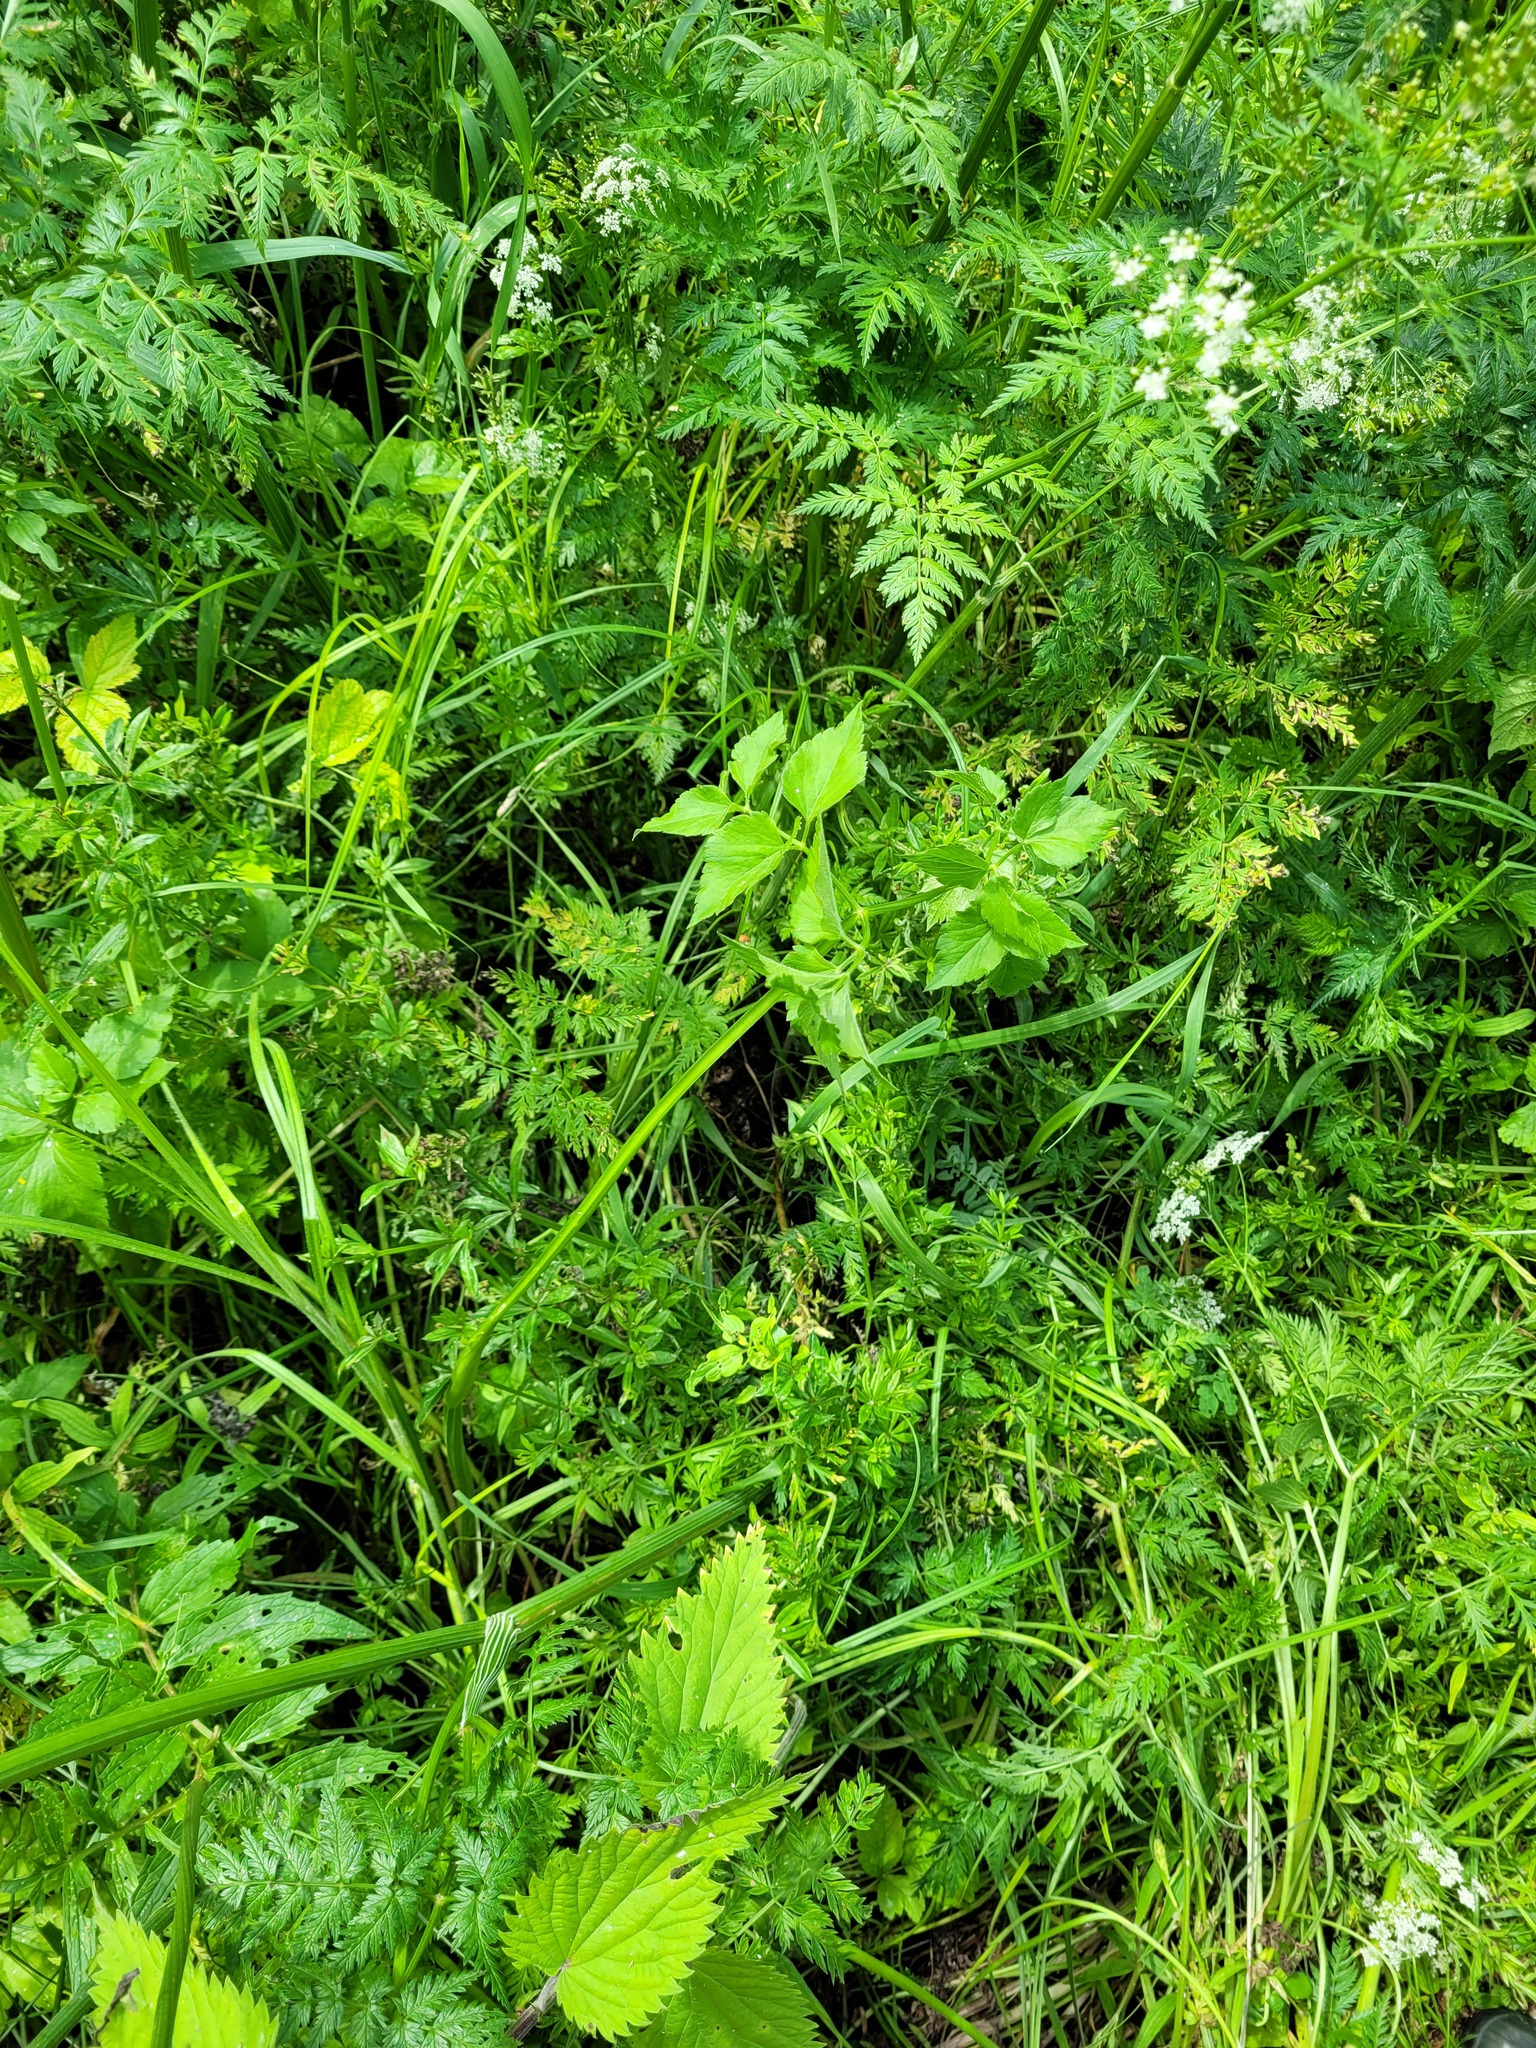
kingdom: Plantae
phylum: Tracheophyta
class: Magnoliopsida
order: Apiales
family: Apiaceae
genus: Ostericum
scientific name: Ostericum palustre
